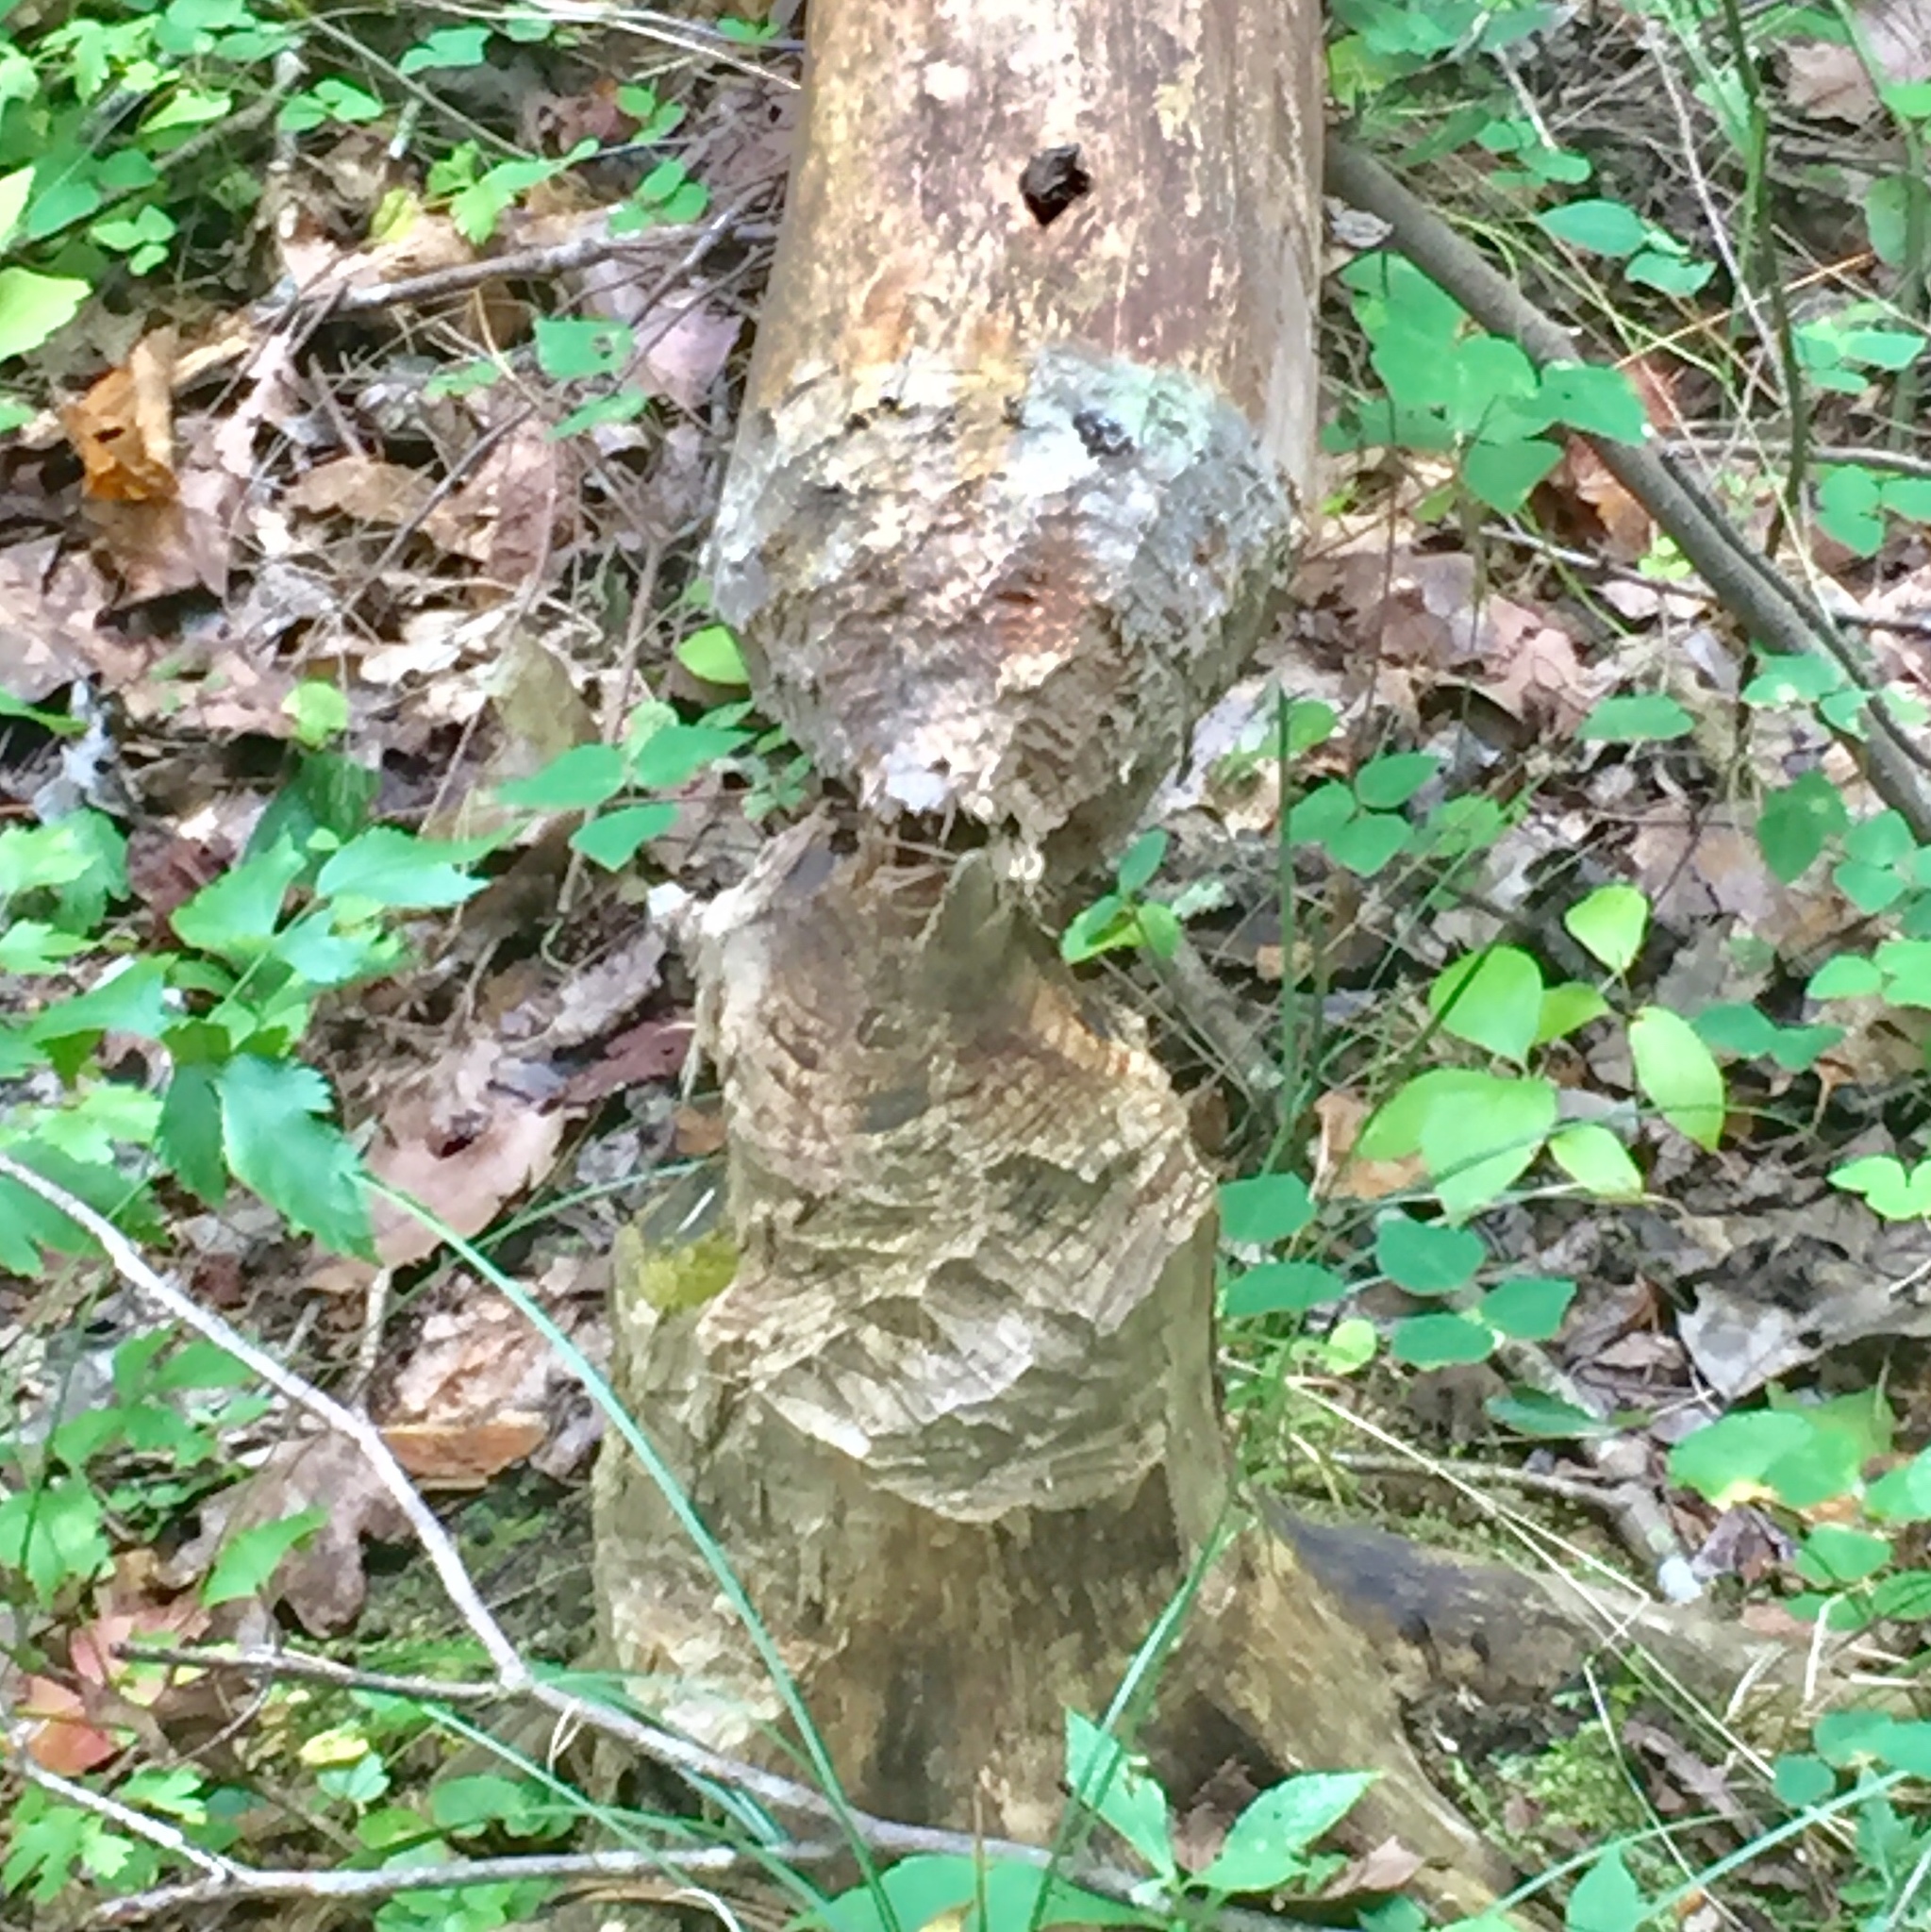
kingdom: Animalia
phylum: Chordata
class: Mammalia
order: Rodentia
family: Castoridae
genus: Castor
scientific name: Castor canadensis
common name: American beaver
